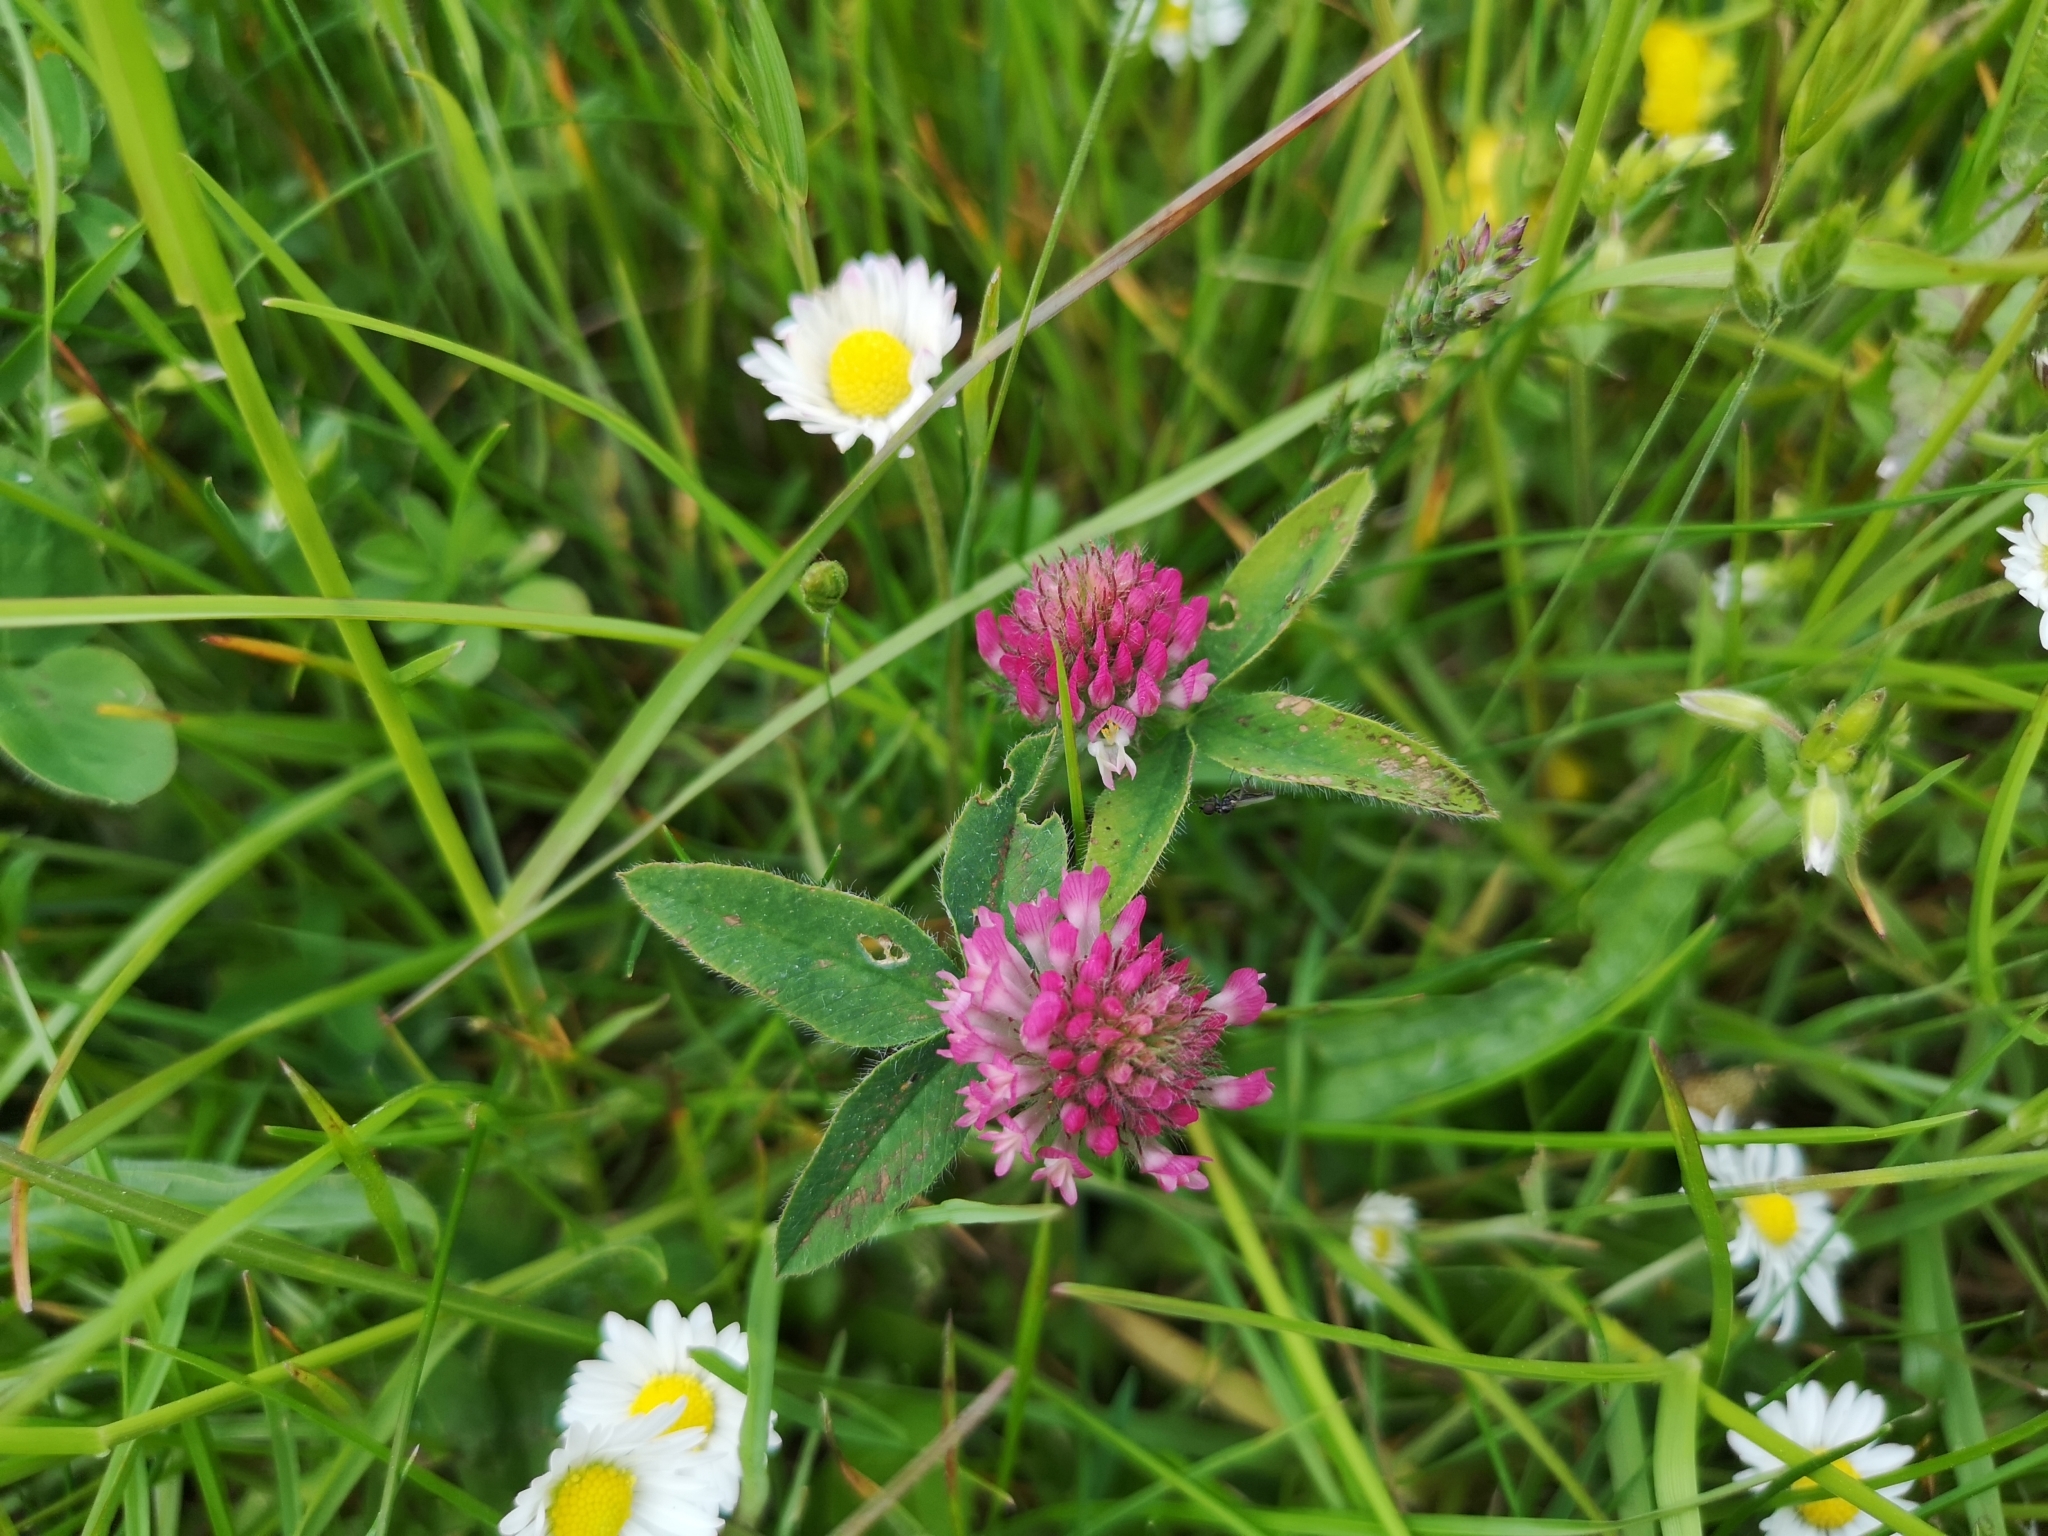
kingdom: Plantae
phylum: Tracheophyta
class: Magnoliopsida
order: Fabales
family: Fabaceae
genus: Trifolium
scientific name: Trifolium medium
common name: Zigzag clover
